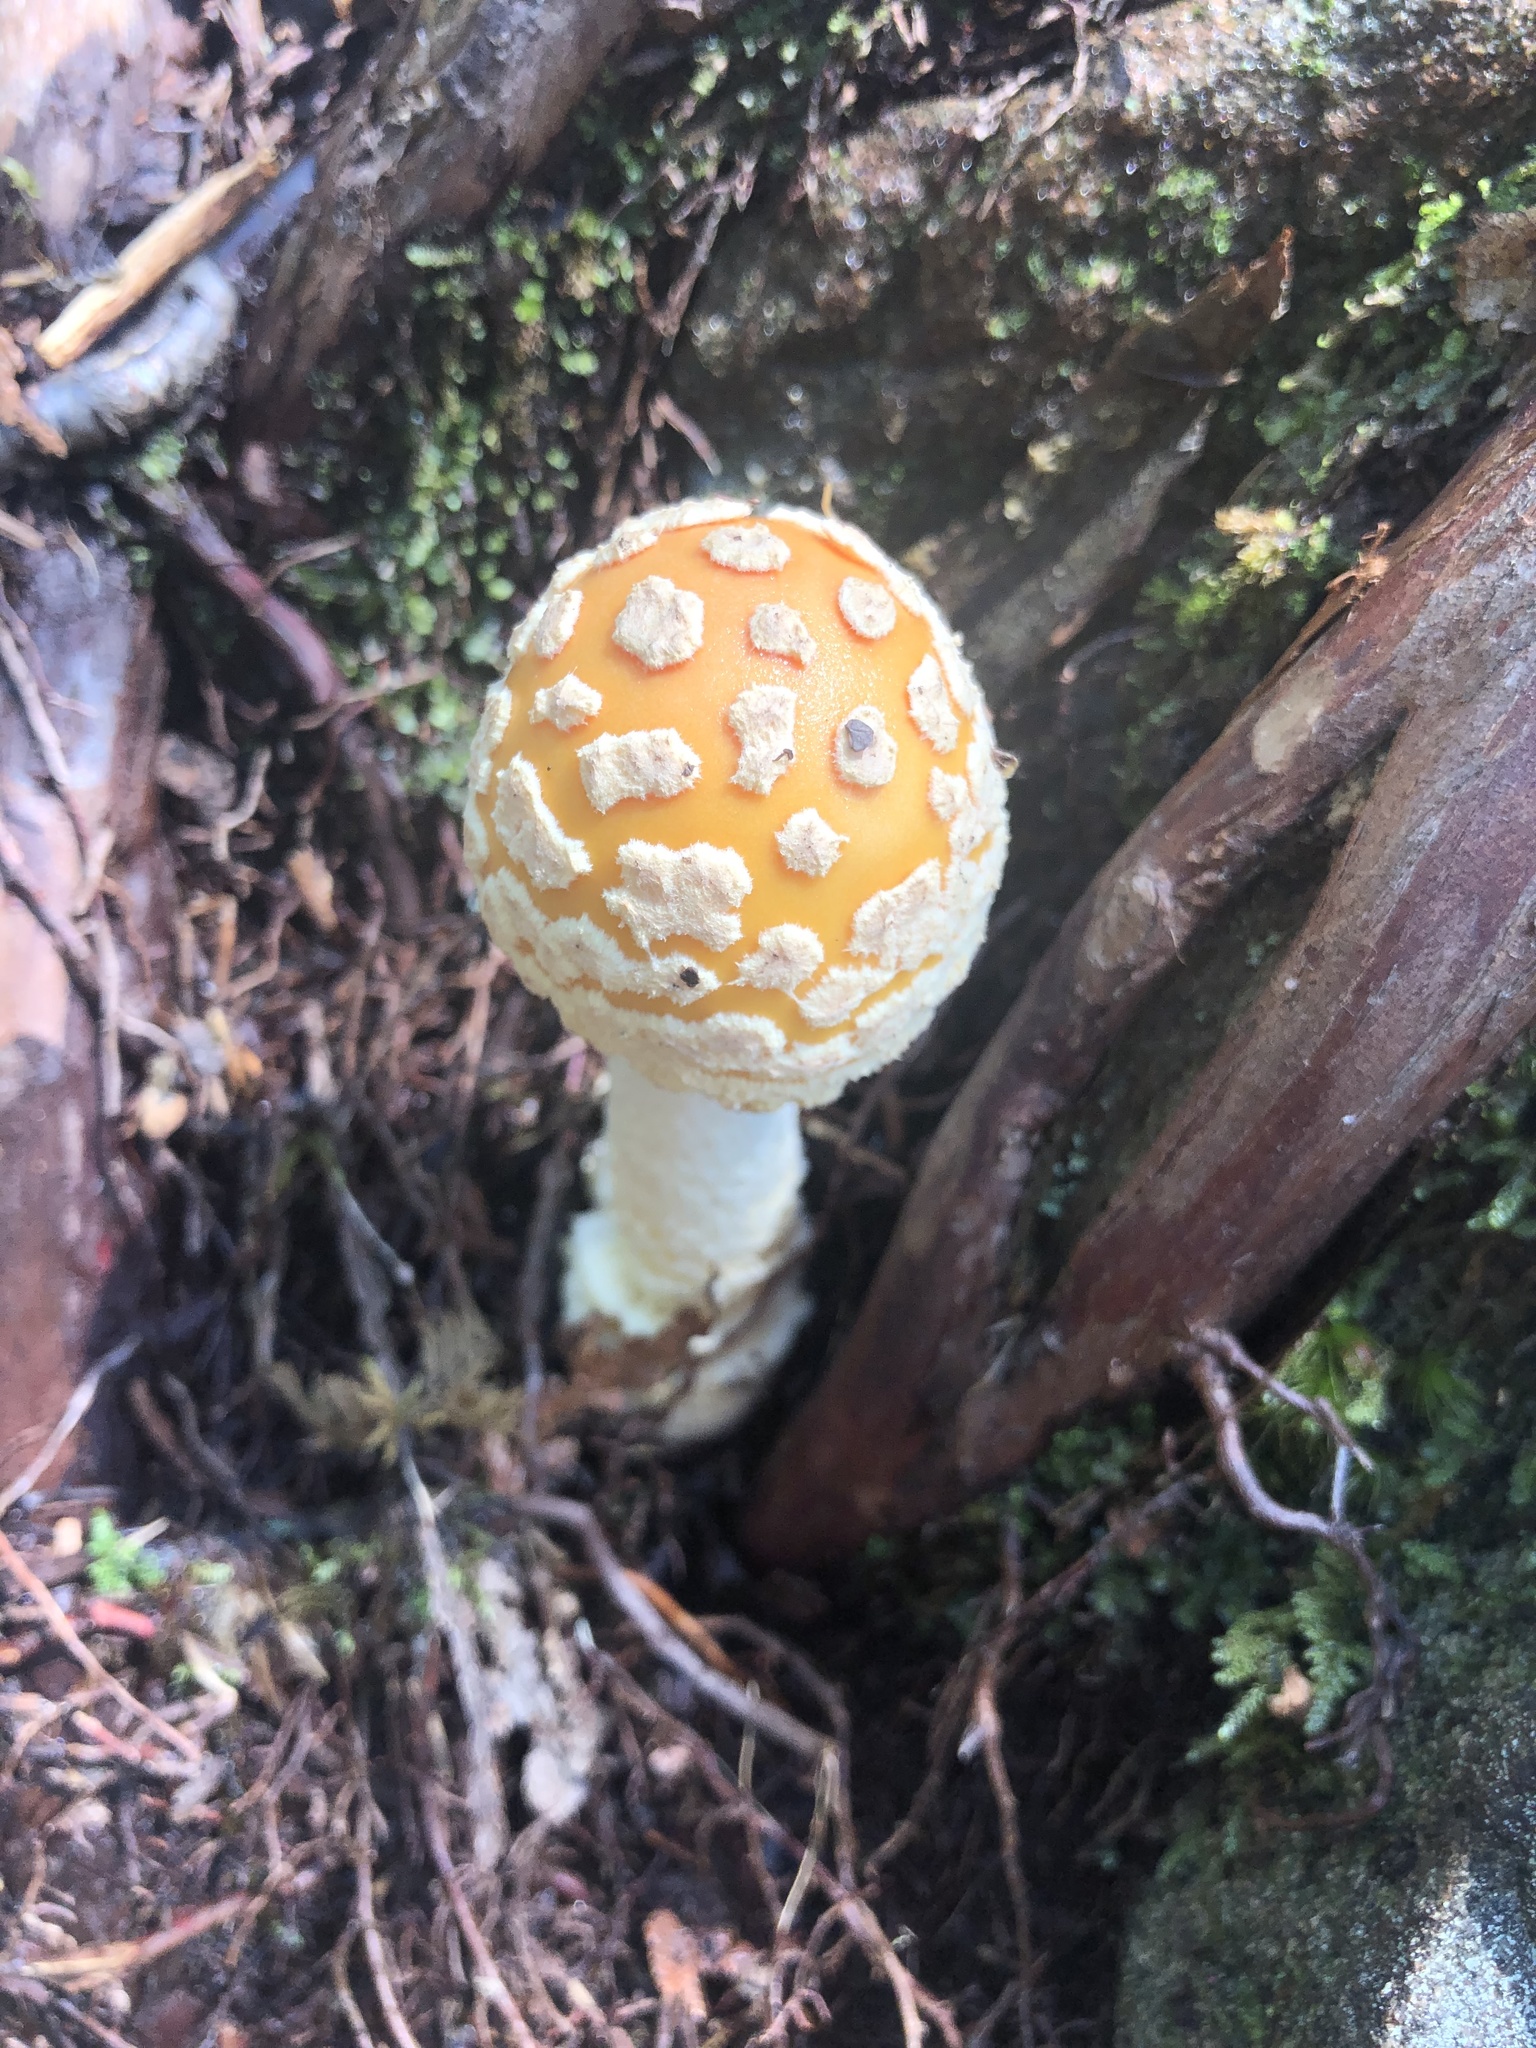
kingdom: Fungi
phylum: Basidiomycota
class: Agaricomycetes
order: Agaricales
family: Amanitaceae
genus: Amanita
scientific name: Amanita muscaria
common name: Fly agaric
